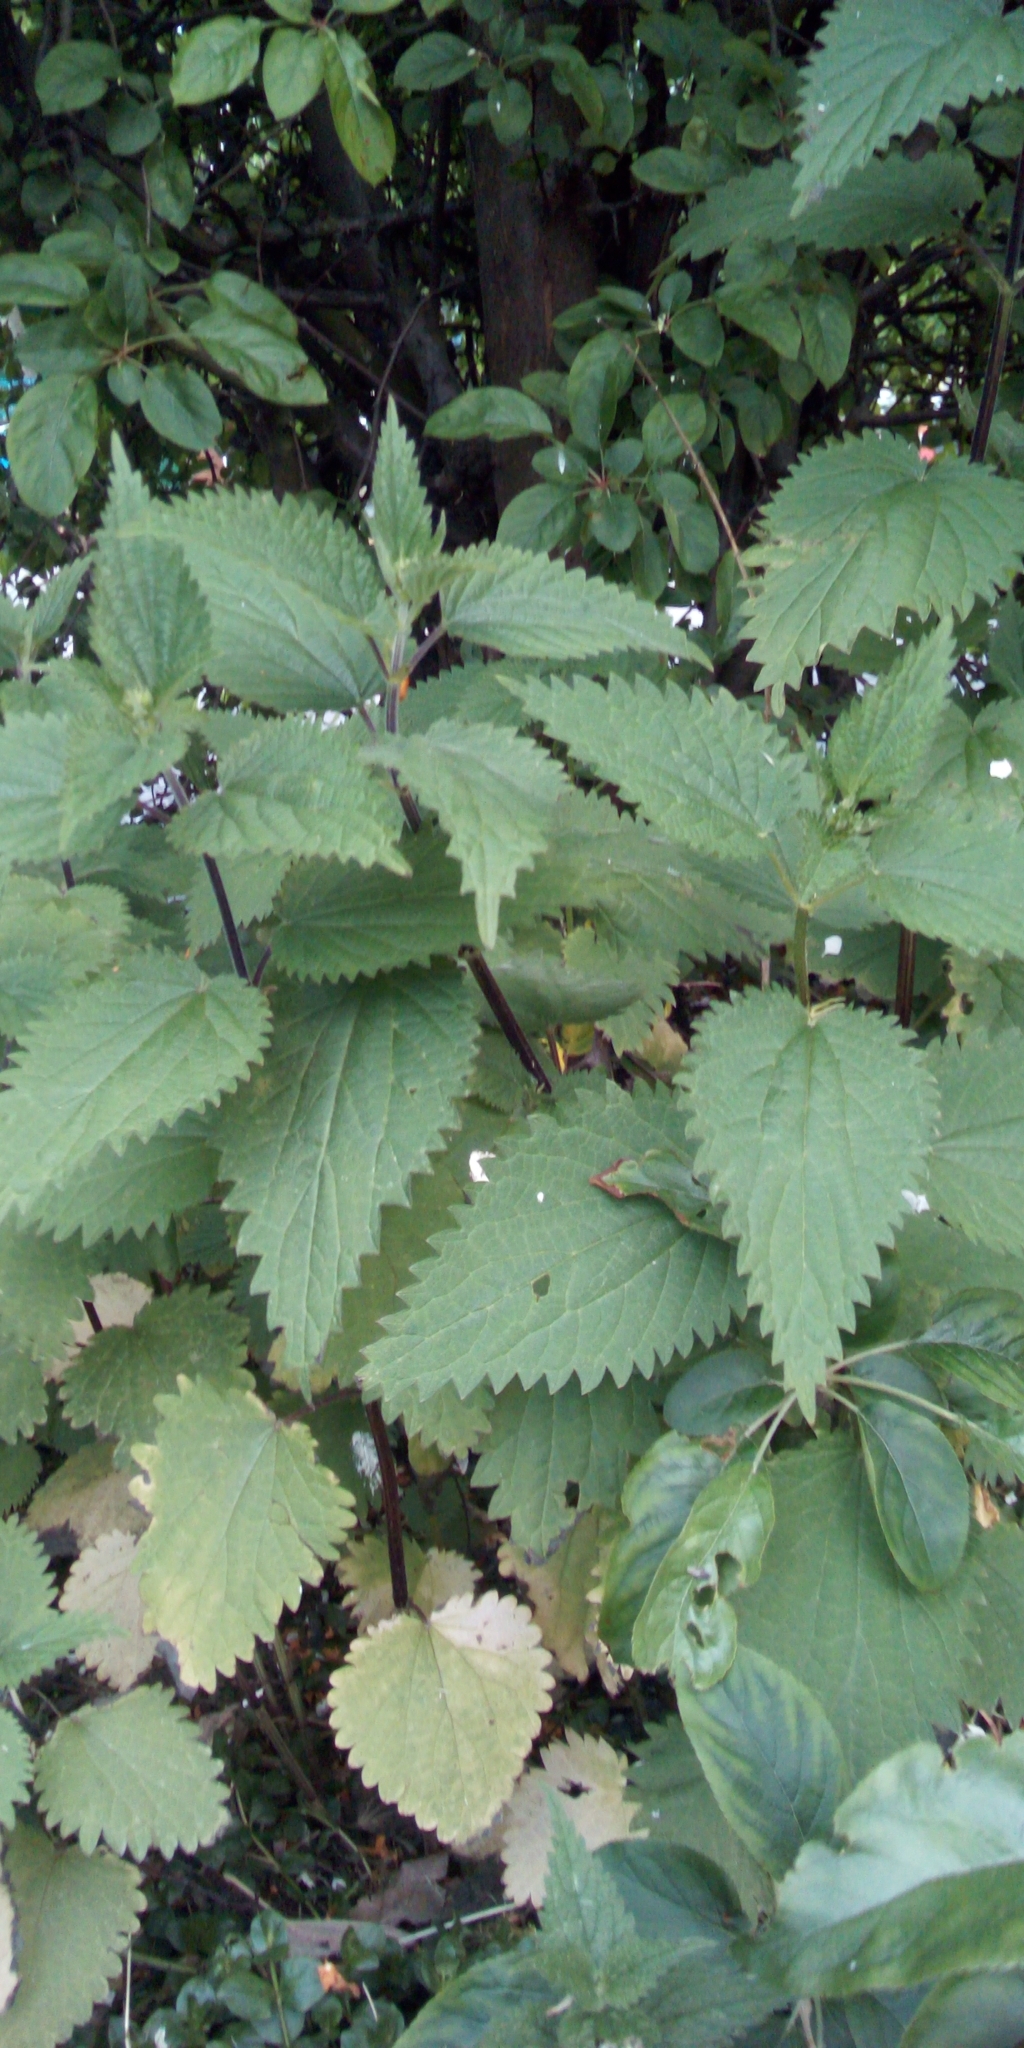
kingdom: Plantae
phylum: Tracheophyta
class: Magnoliopsida
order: Rosales
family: Urticaceae
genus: Urtica
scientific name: Urtica dioica
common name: Common nettle
